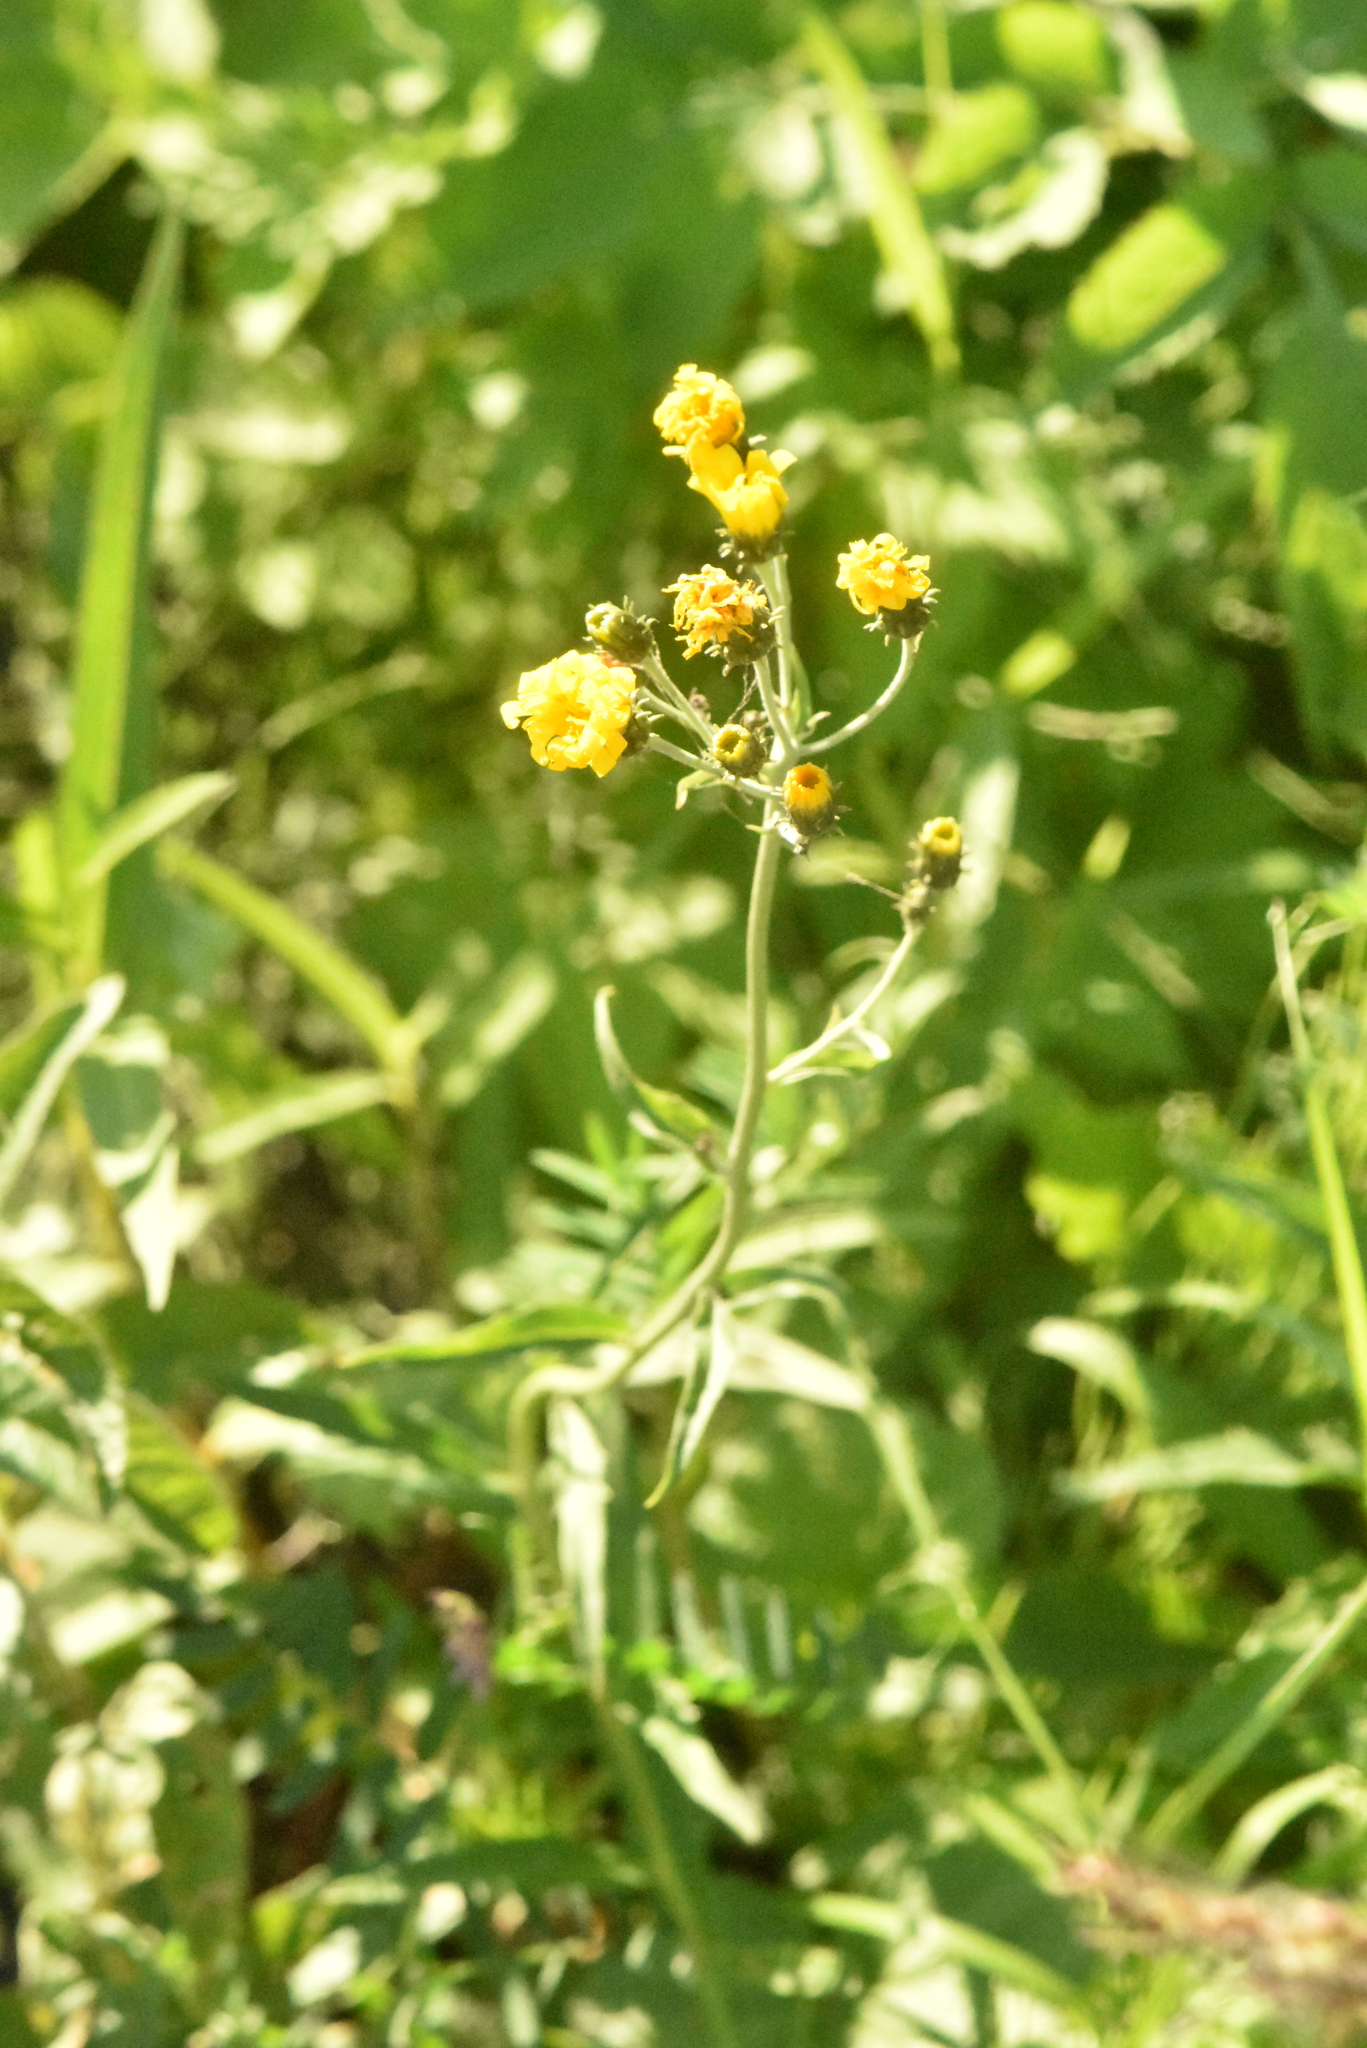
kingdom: Plantae
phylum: Tracheophyta
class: Magnoliopsida
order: Asterales
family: Asteraceae
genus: Hieracium
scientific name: Hieracium umbellatum
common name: Northern hawkweed
